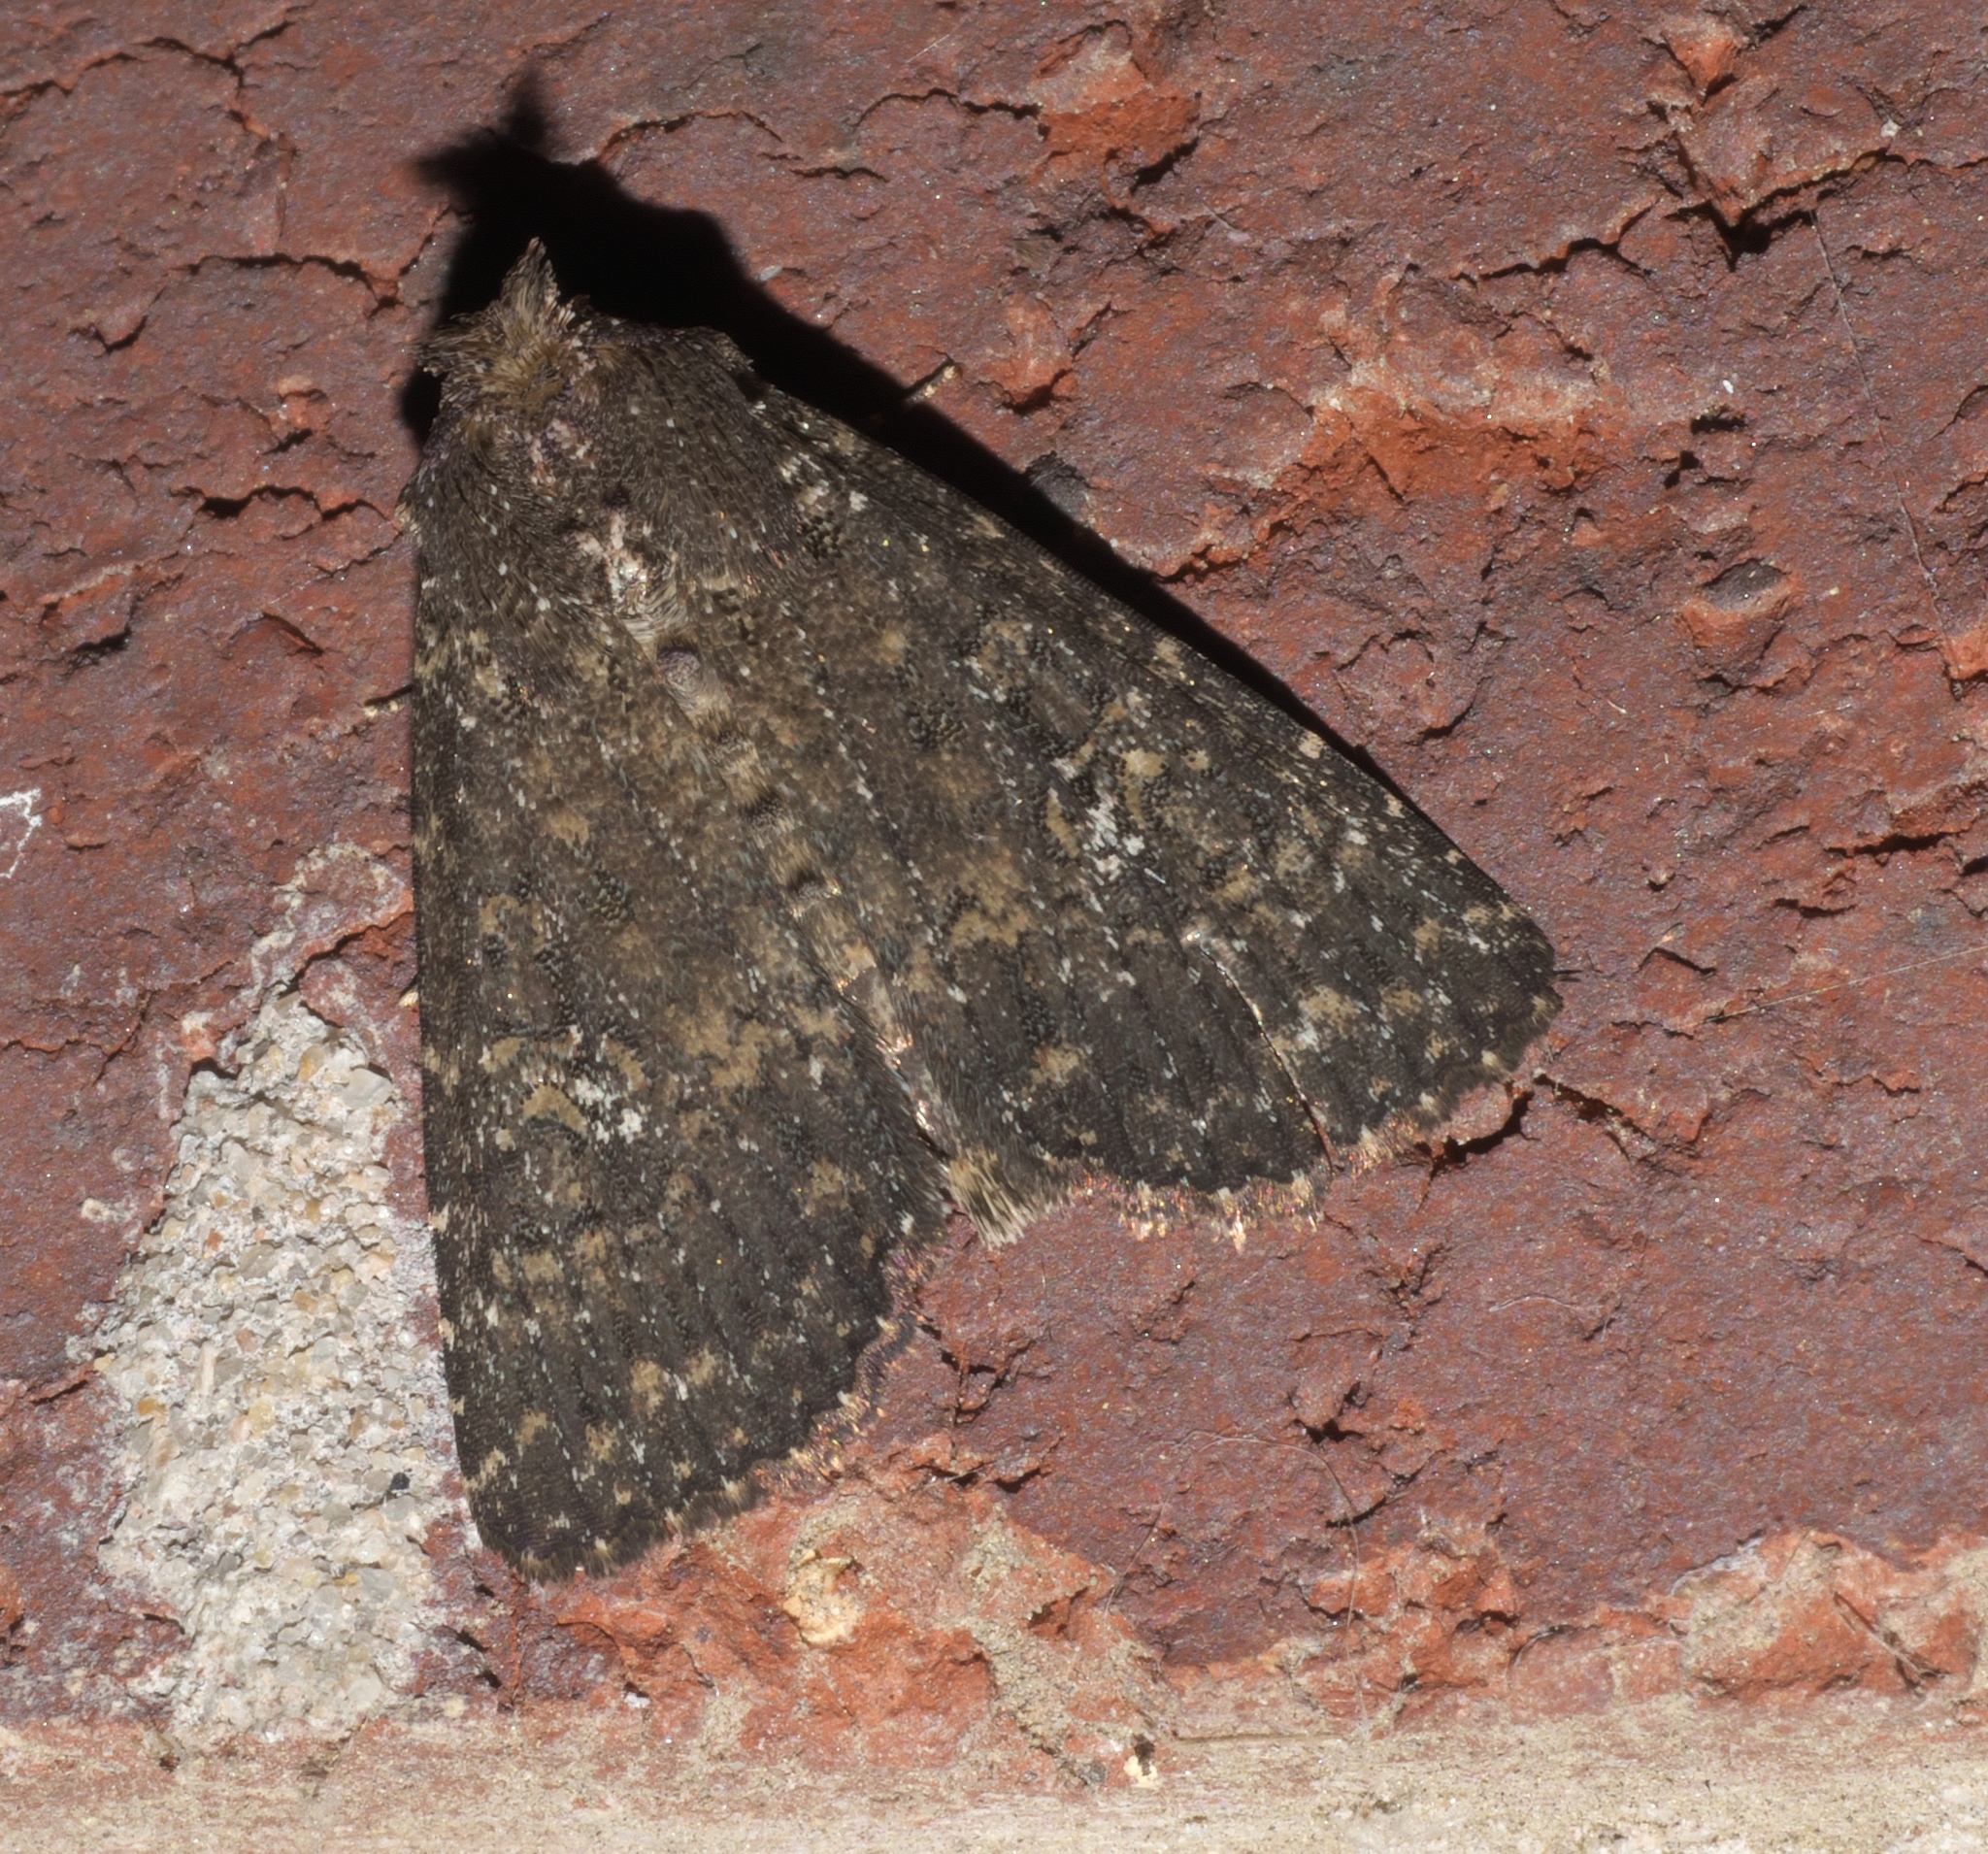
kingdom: Animalia
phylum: Arthropoda
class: Insecta
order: Lepidoptera
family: Noctuidae
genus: Condica
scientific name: Condica vecors
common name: Dusky groundling
